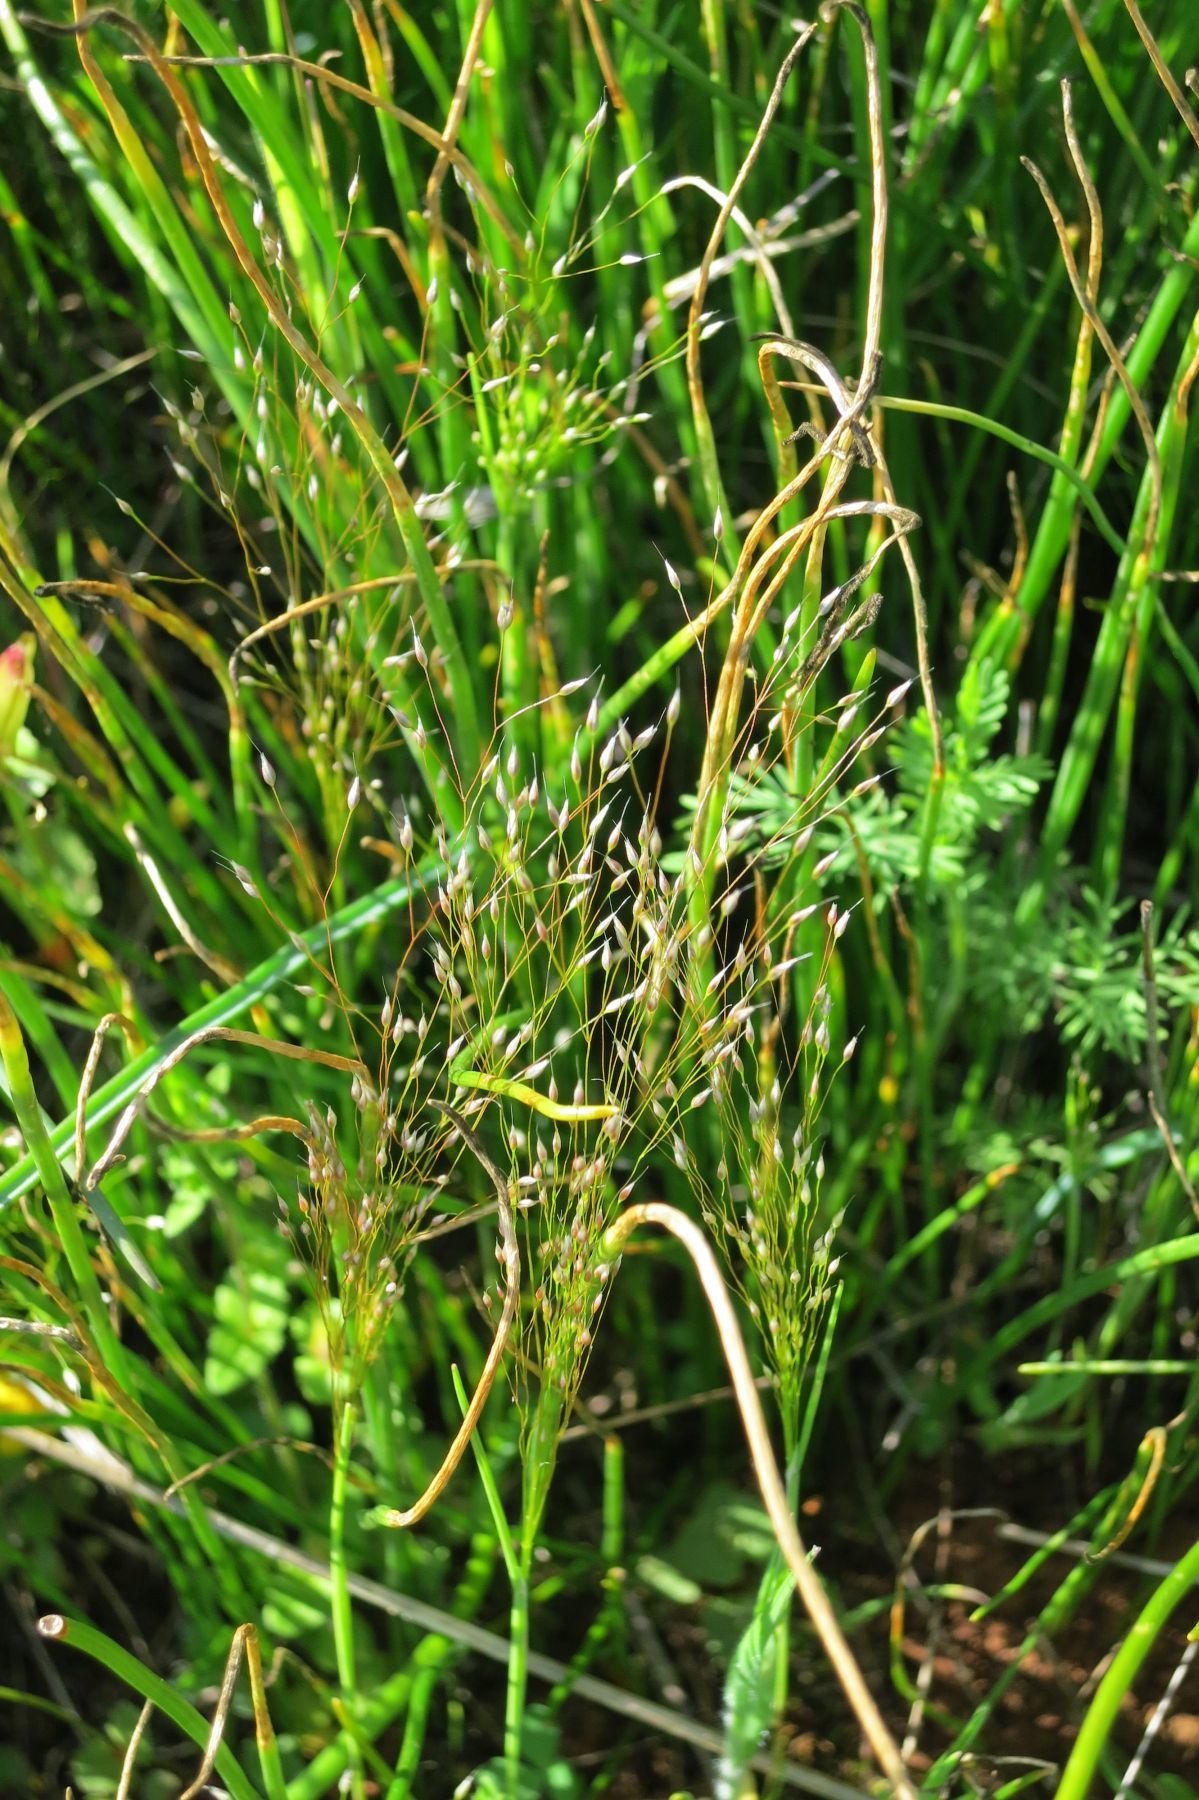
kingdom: Plantae
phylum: Tracheophyta
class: Liliopsida
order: Poales
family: Poaceae
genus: Aira
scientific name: Aira elegans
